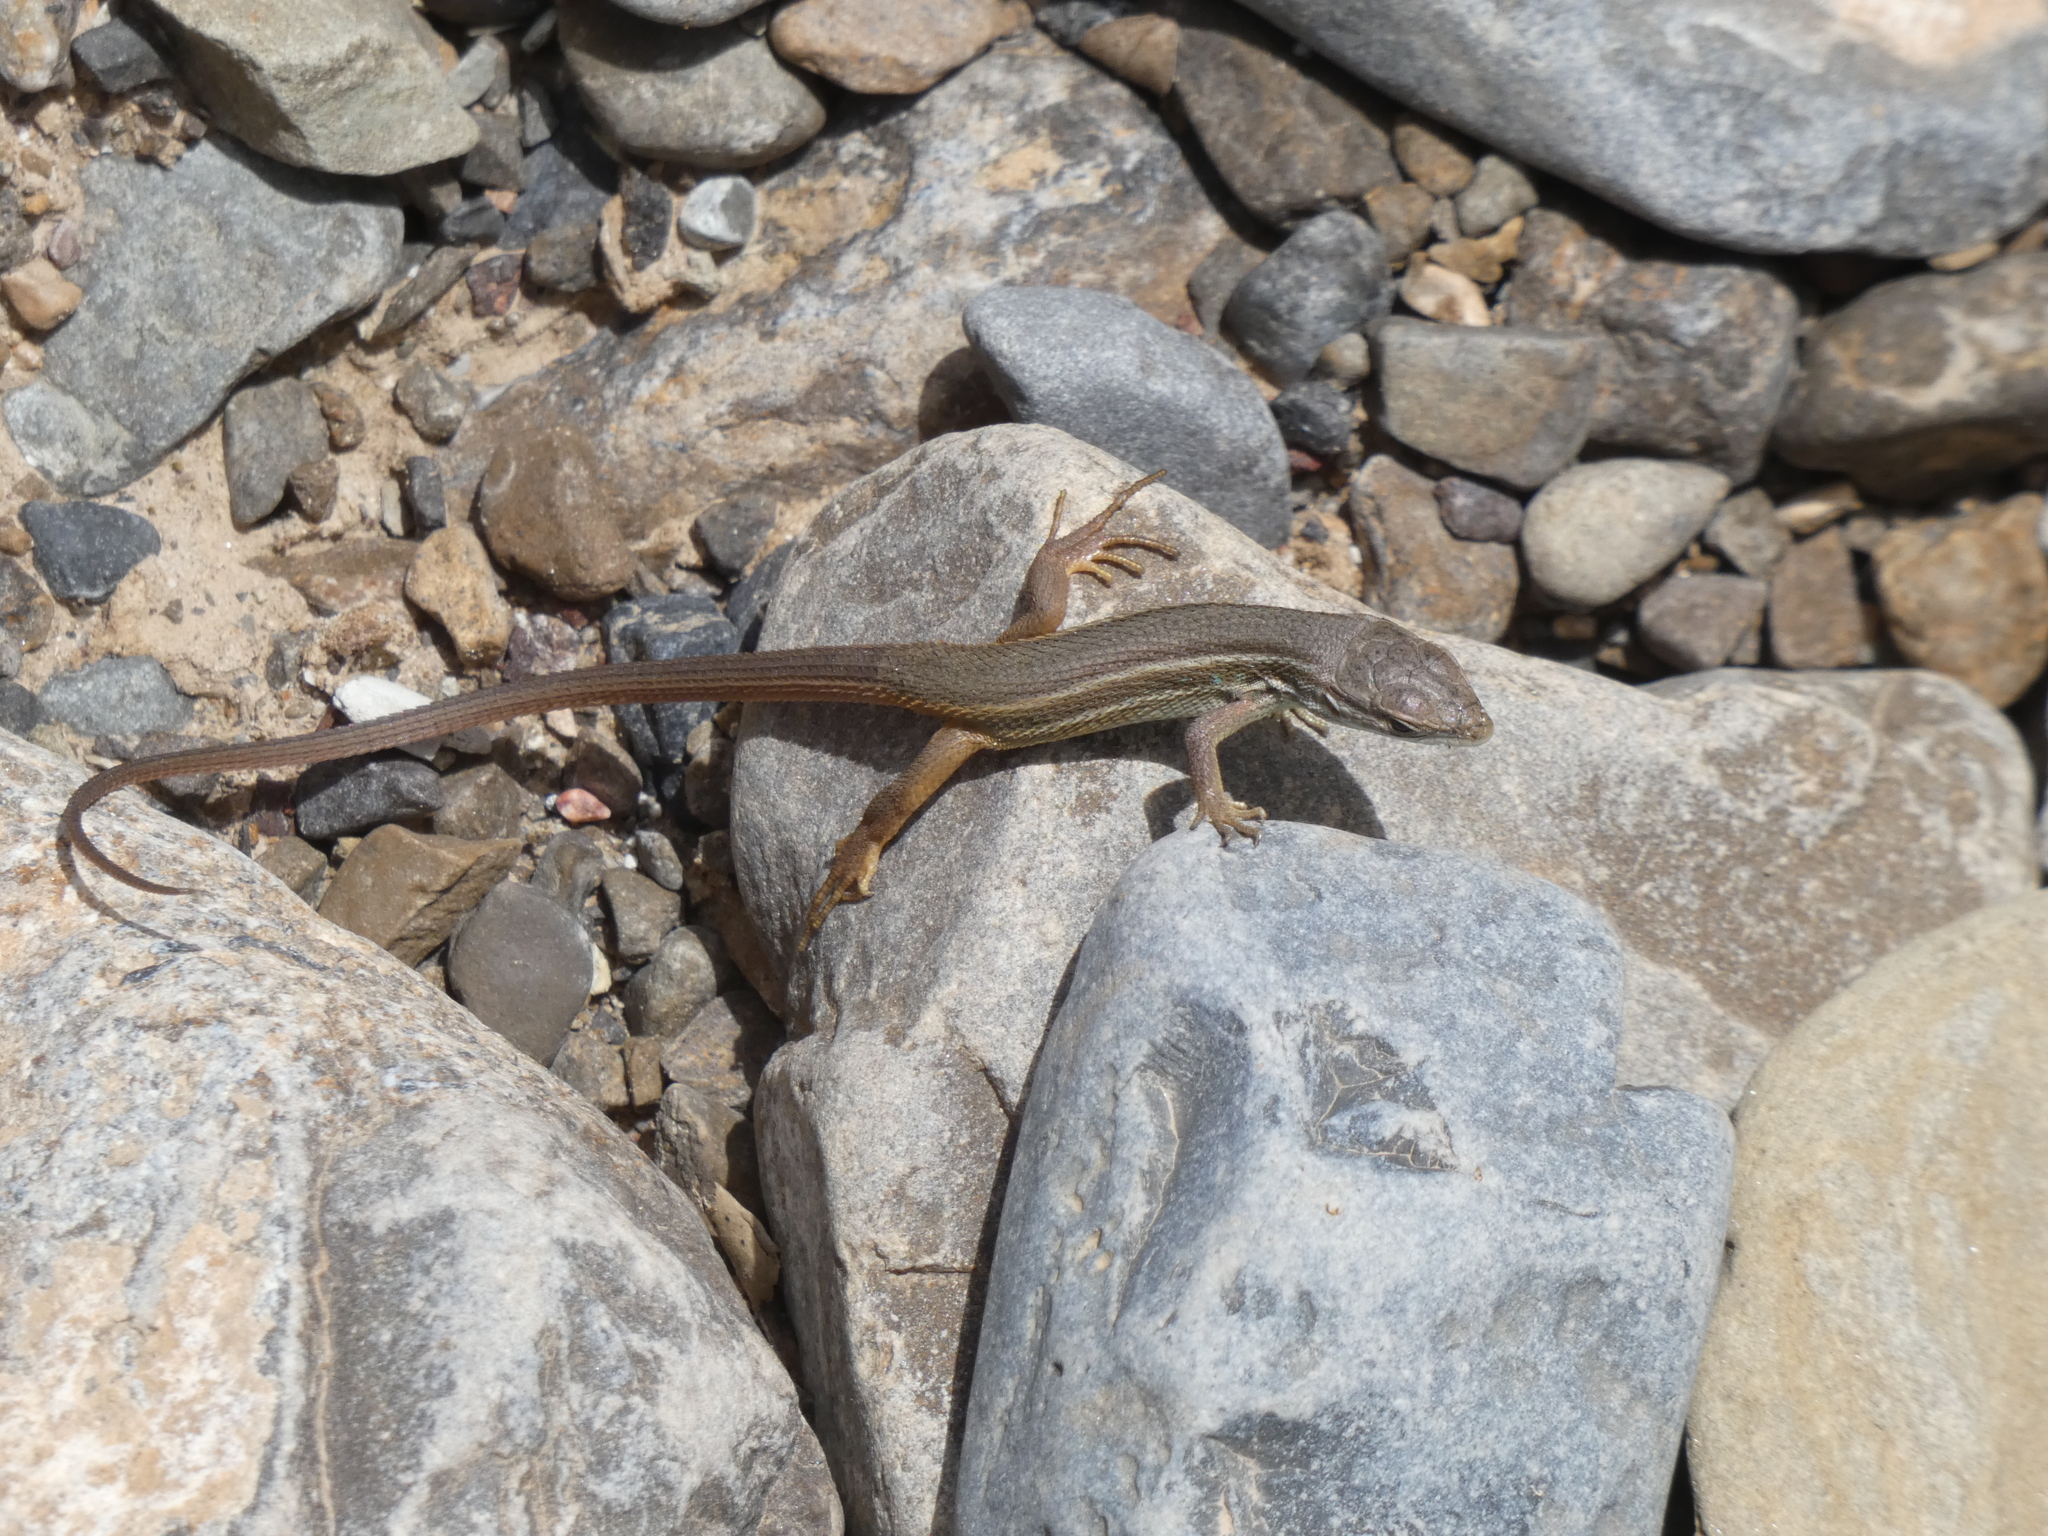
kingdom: Animalia
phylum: Chordata
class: Squamata
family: Lacertidae
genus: Psammodromus
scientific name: Psammodromus algirus
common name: Algerian psammodromus
